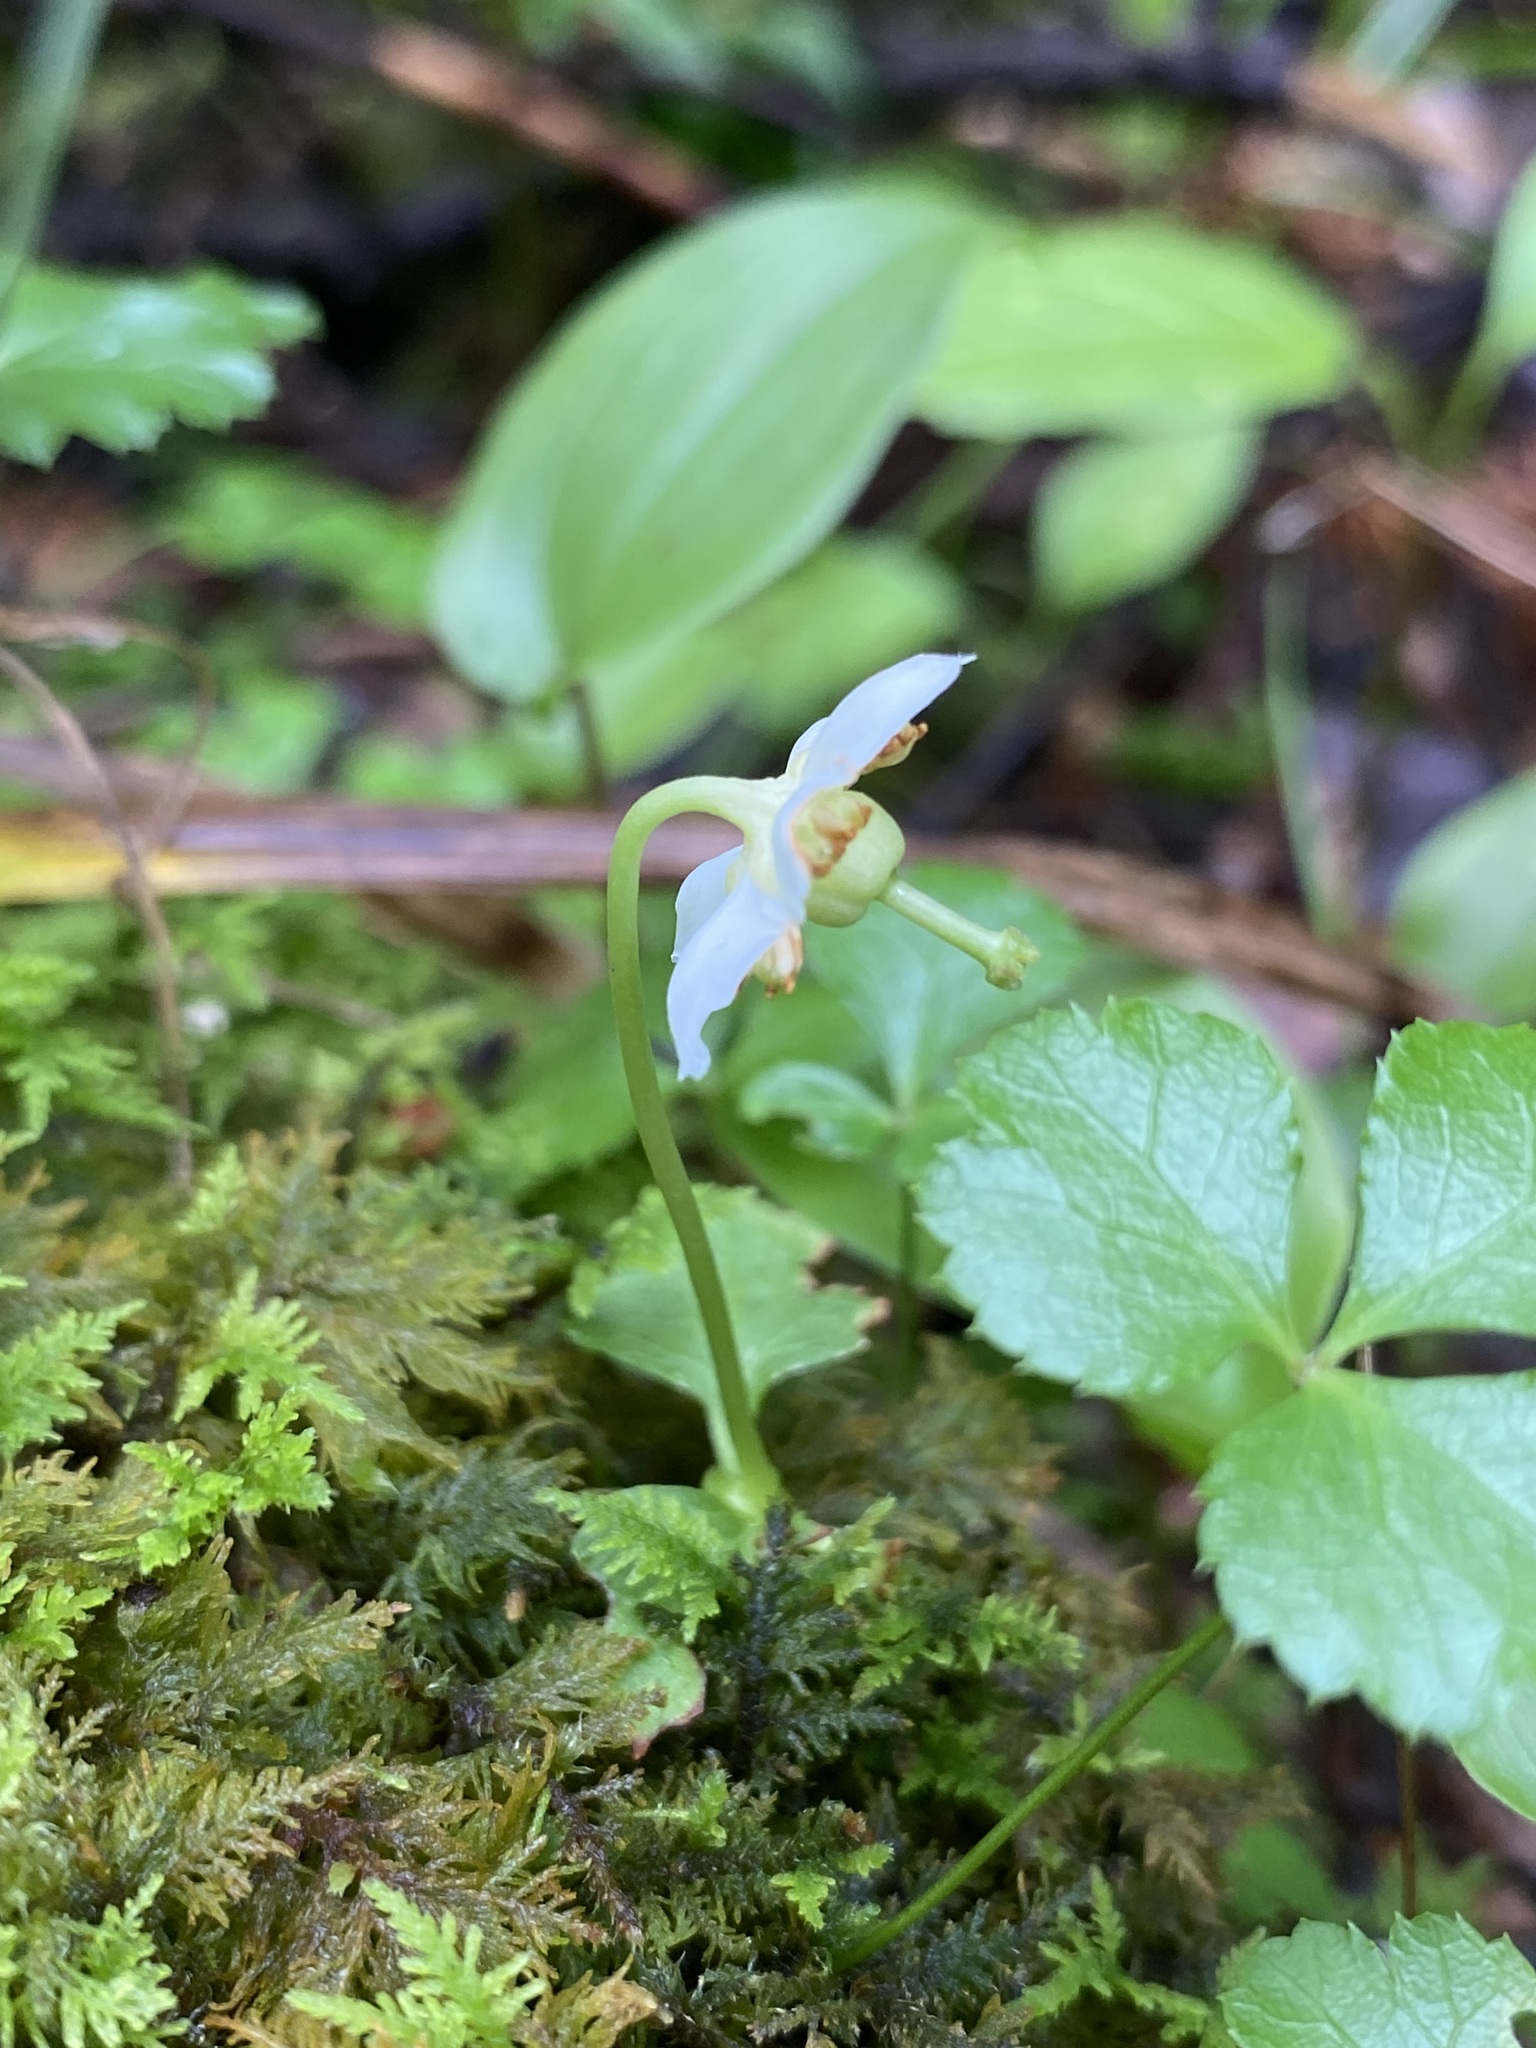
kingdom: Plantae
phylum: Tracheophyta
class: Magnoliopsida
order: Ericales
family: Ericaceae
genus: Moneses
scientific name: Moneses uniflora
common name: One-flowered wintergreen
